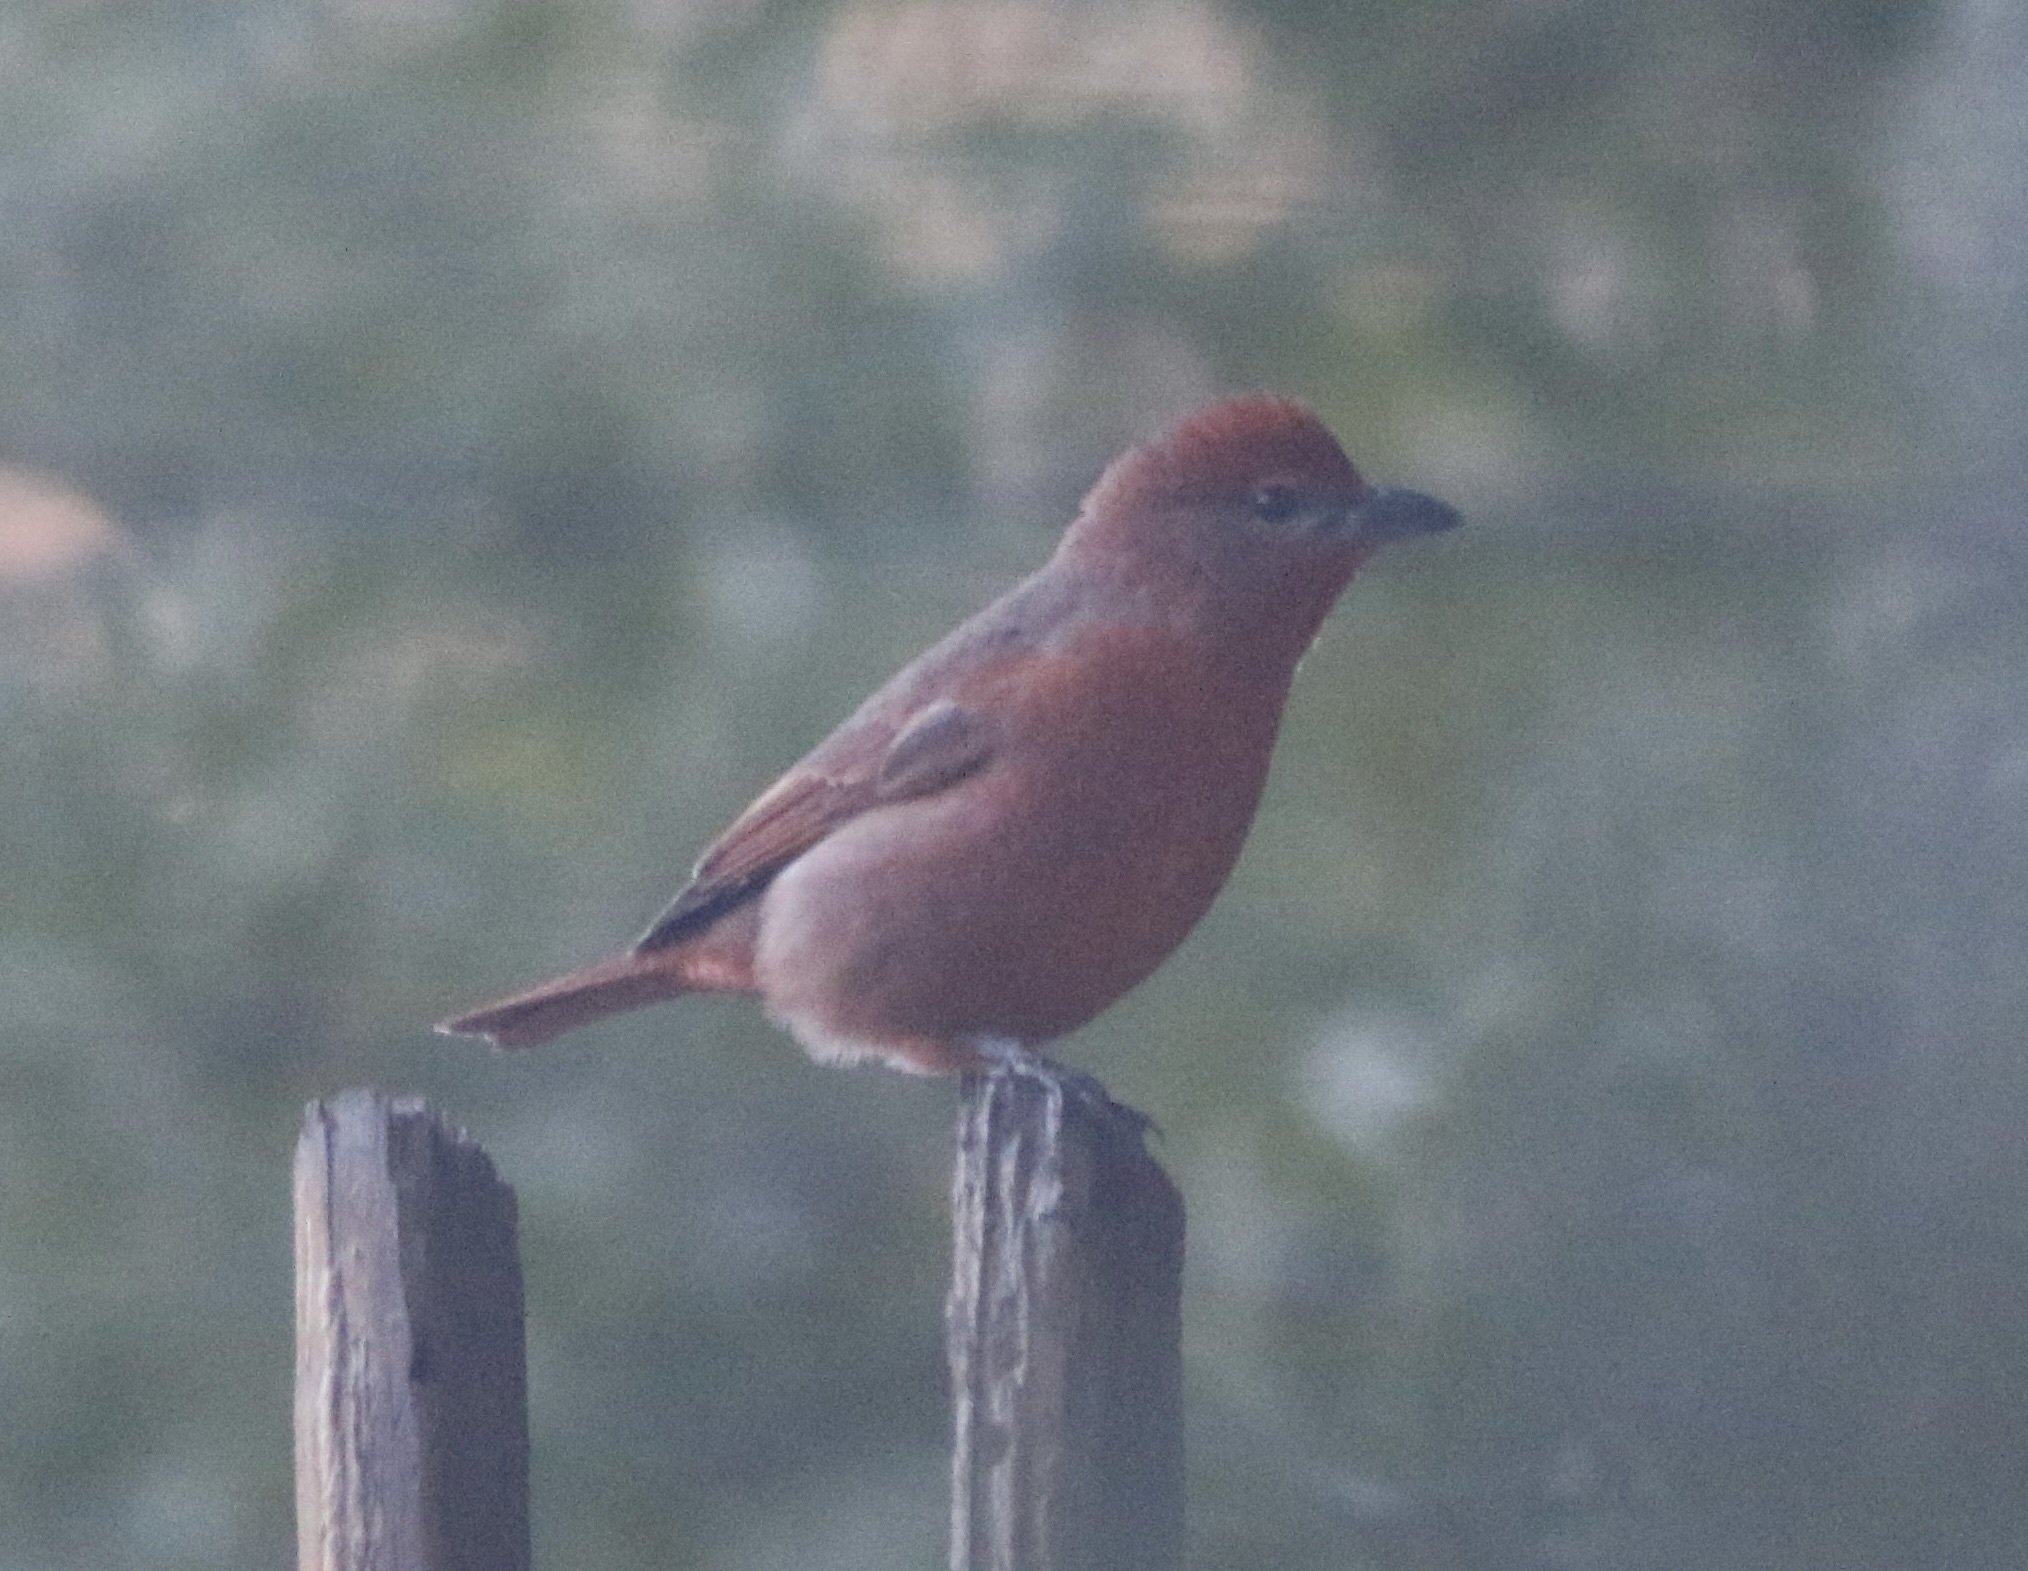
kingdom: Animalia
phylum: Chordata
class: Aves
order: Passeriformes
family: Cardinalidae
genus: Piranga
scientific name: Piranga flava
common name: Red tanager
